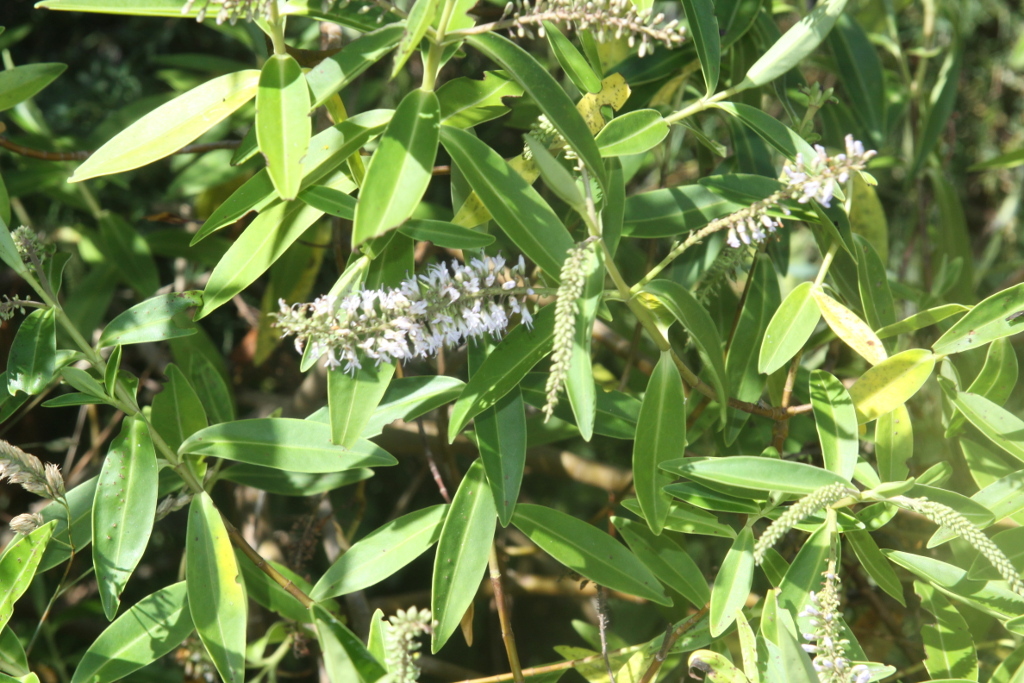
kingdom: Plantae
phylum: Tracheophyta
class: Magnoliopsida
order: Lamiales
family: Plantaginaceae
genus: Veronica
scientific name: Veronica stricta
